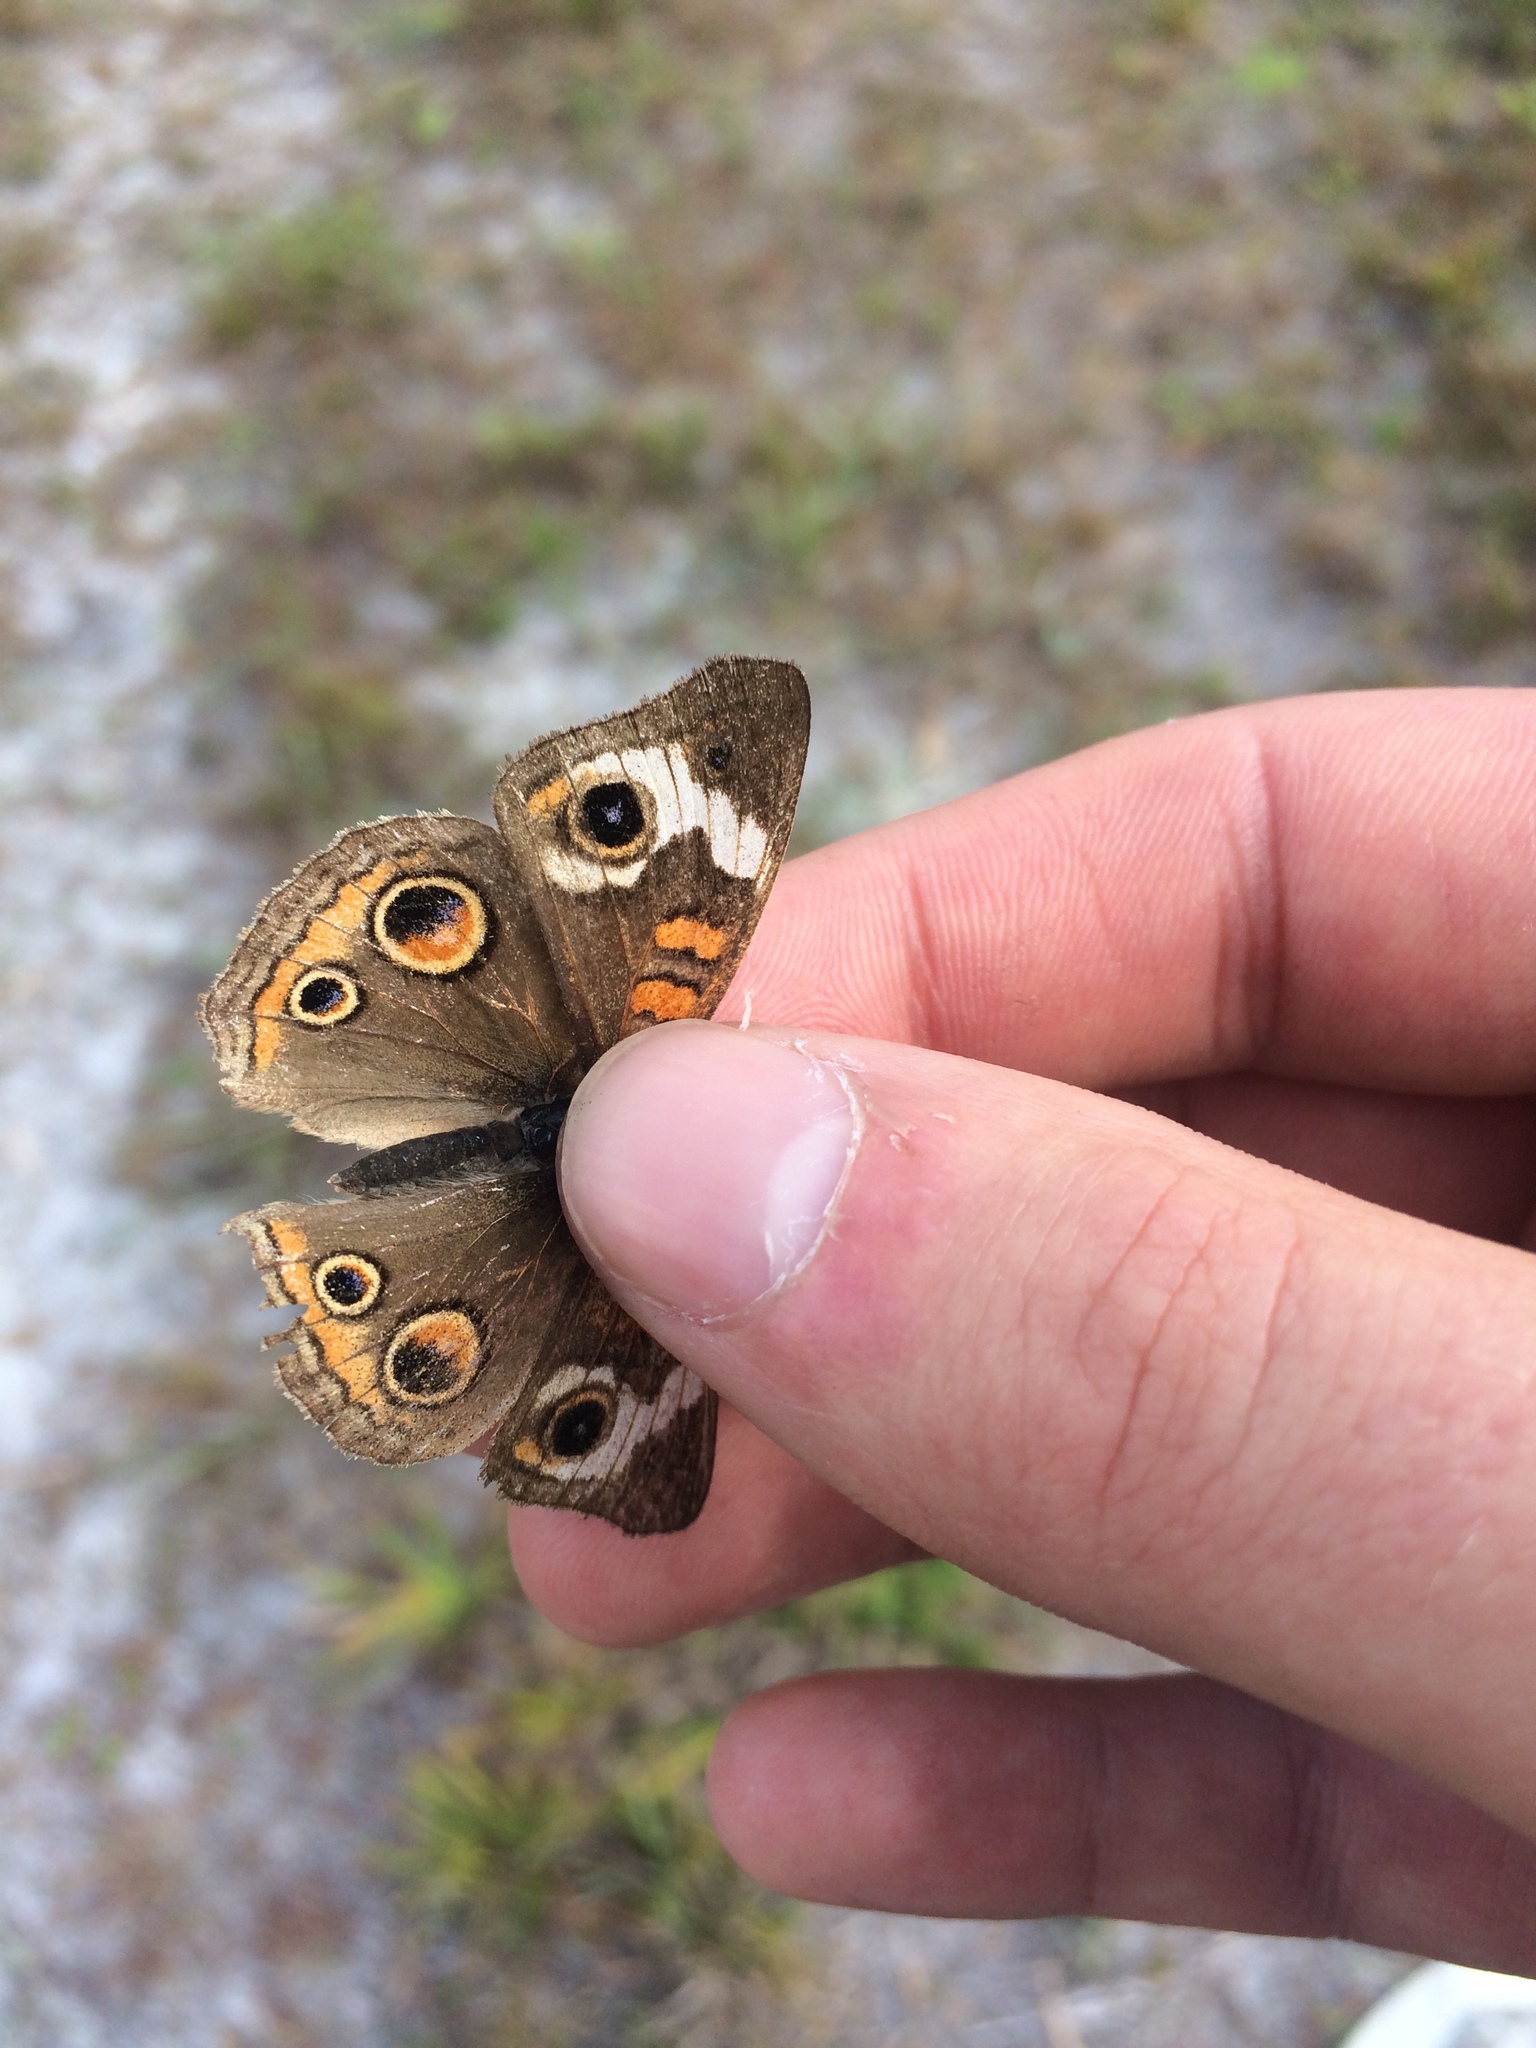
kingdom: Animalia
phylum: Arthropoda
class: Insecta
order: Lepidoptera
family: Nymphalidae
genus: Junonia
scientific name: Junonia coenia
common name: Common buckeye
